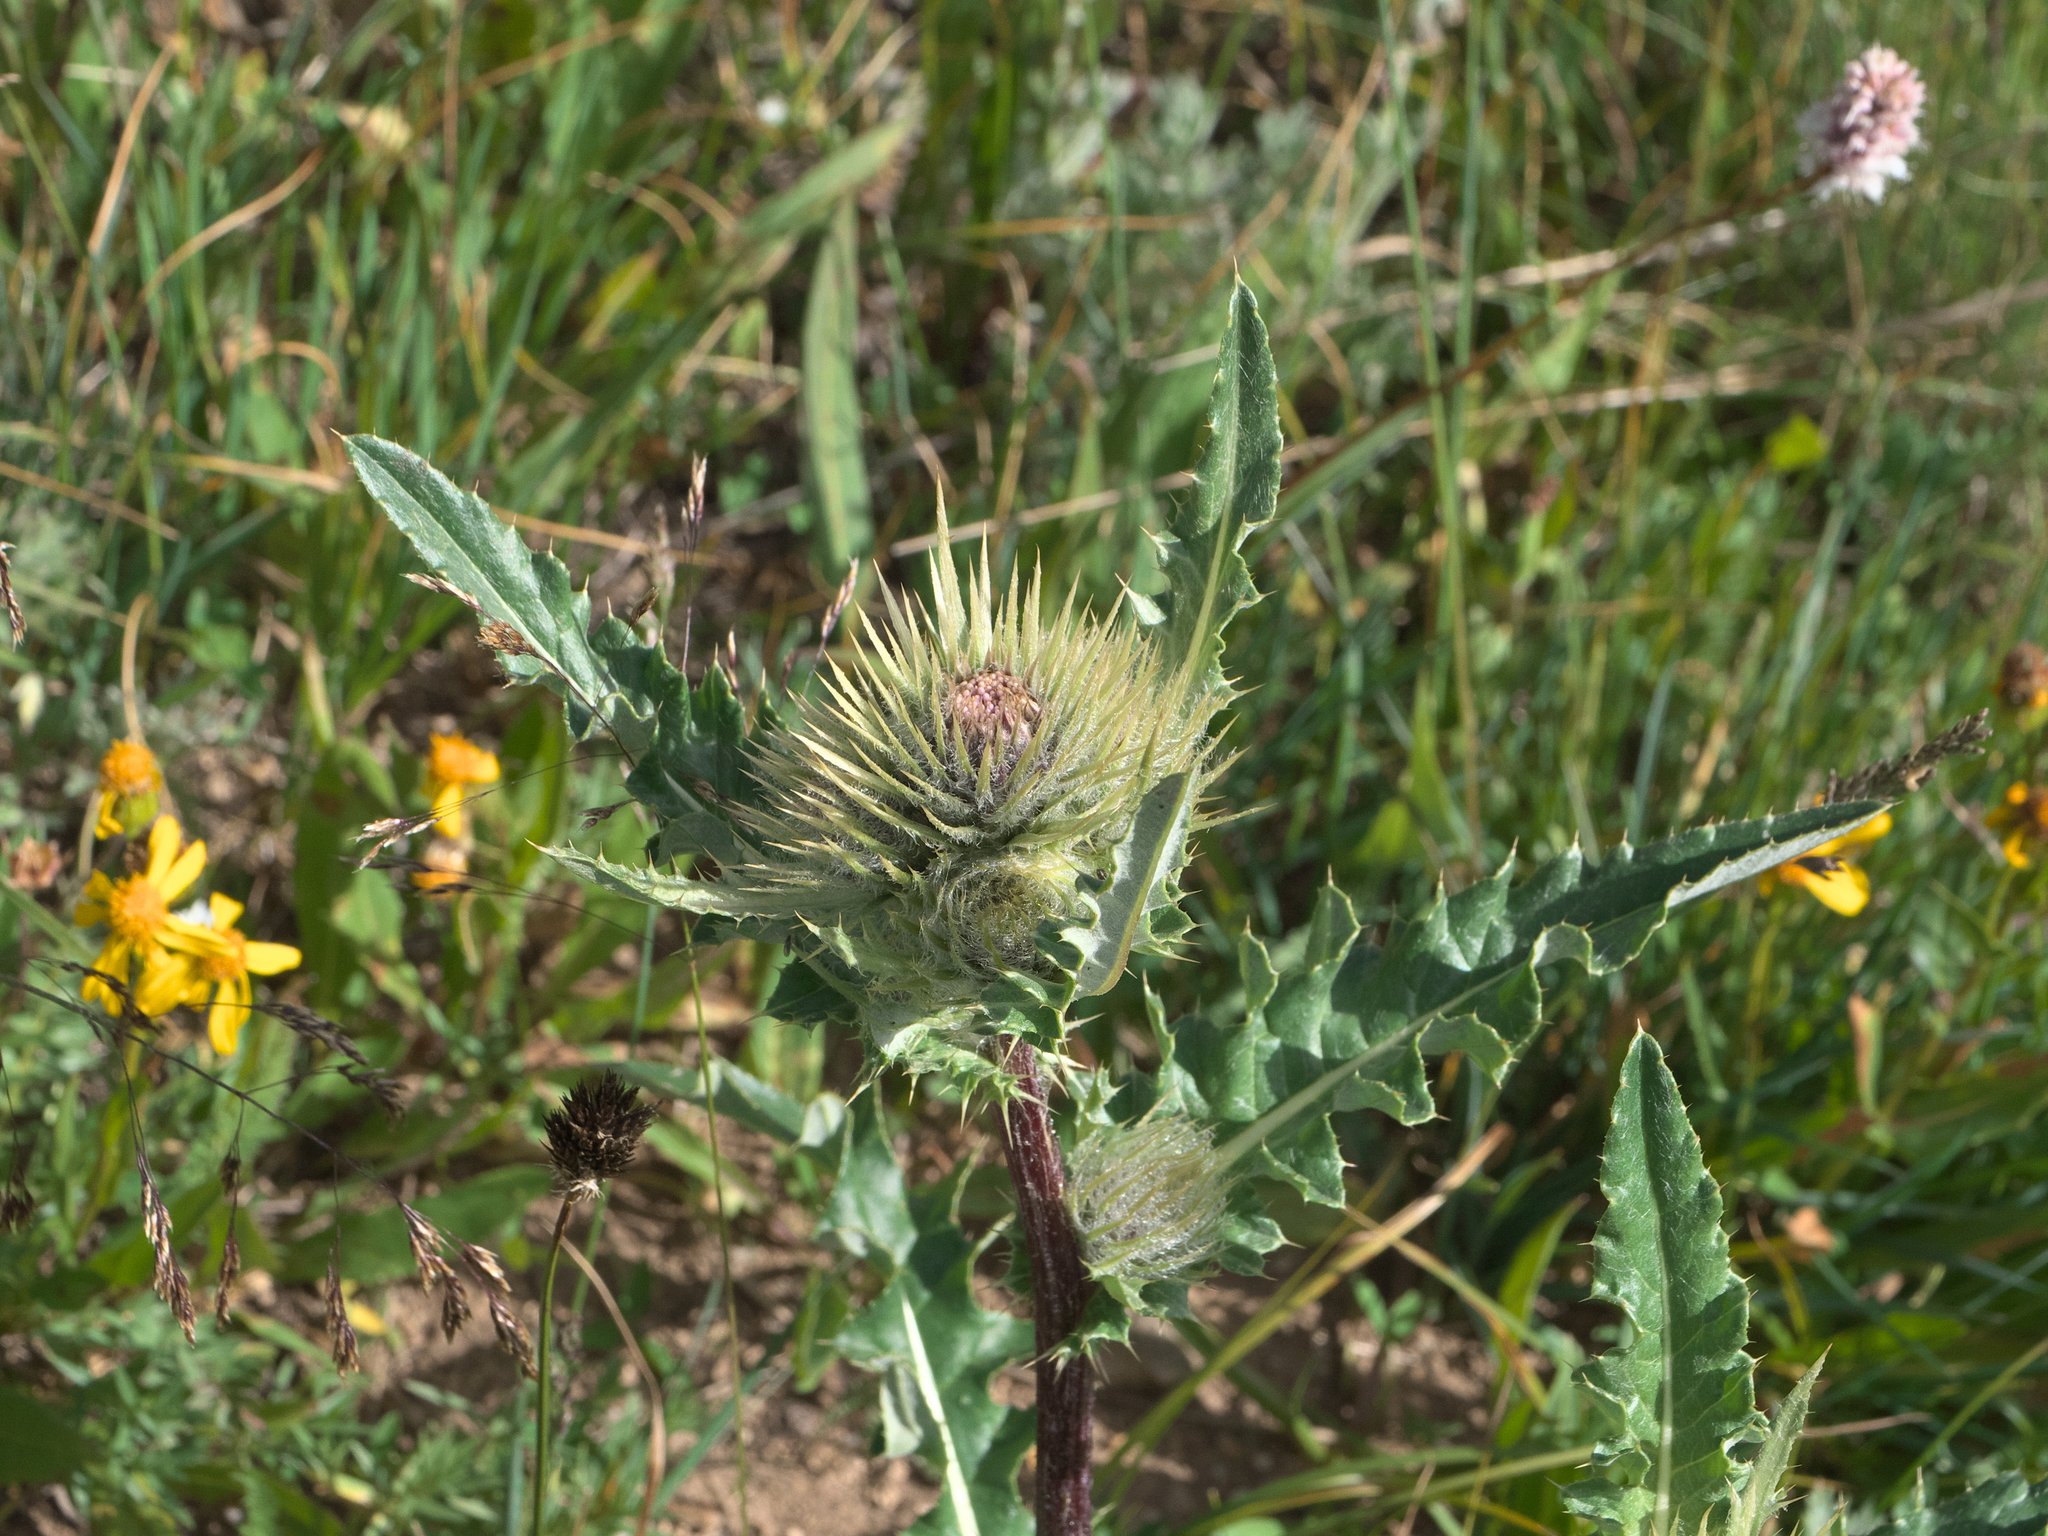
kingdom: Plantae
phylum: Tracheophyta
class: Magnoliopsida
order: Asterales
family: Asteraceae
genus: Cirsium
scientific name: Cirsium griseum
